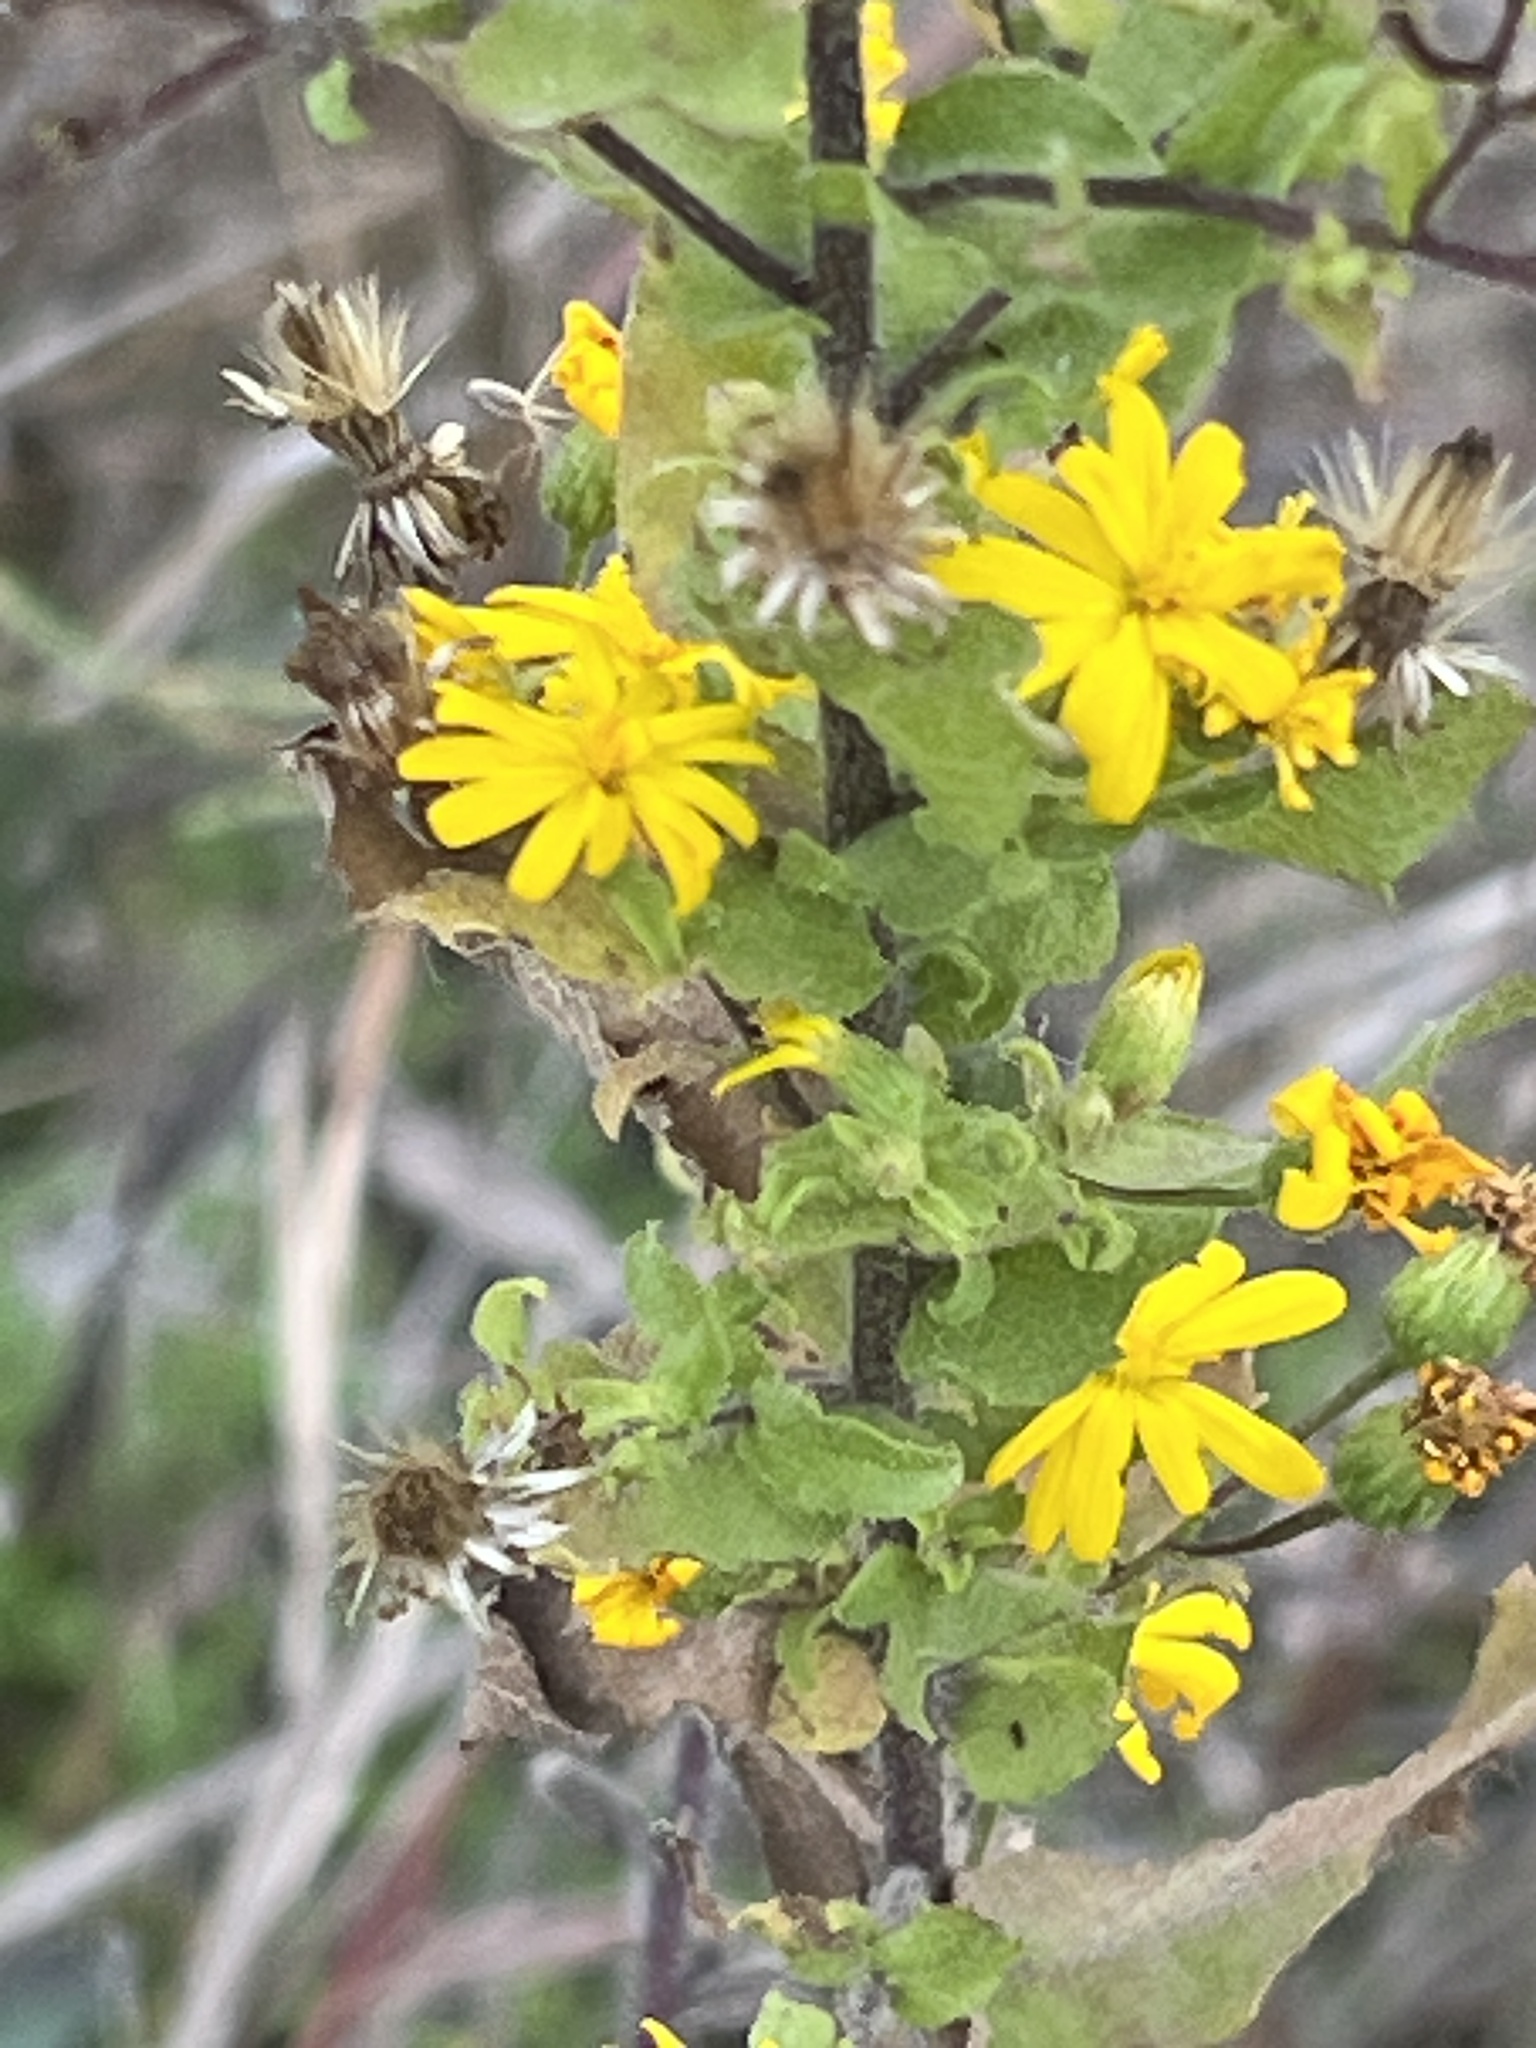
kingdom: Plantae
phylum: Tracheophyta
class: Magnoliopsida
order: Asterales
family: Asteraceae
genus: Heterotheca
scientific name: Heterotheca subaxillaris
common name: Camphorweed
